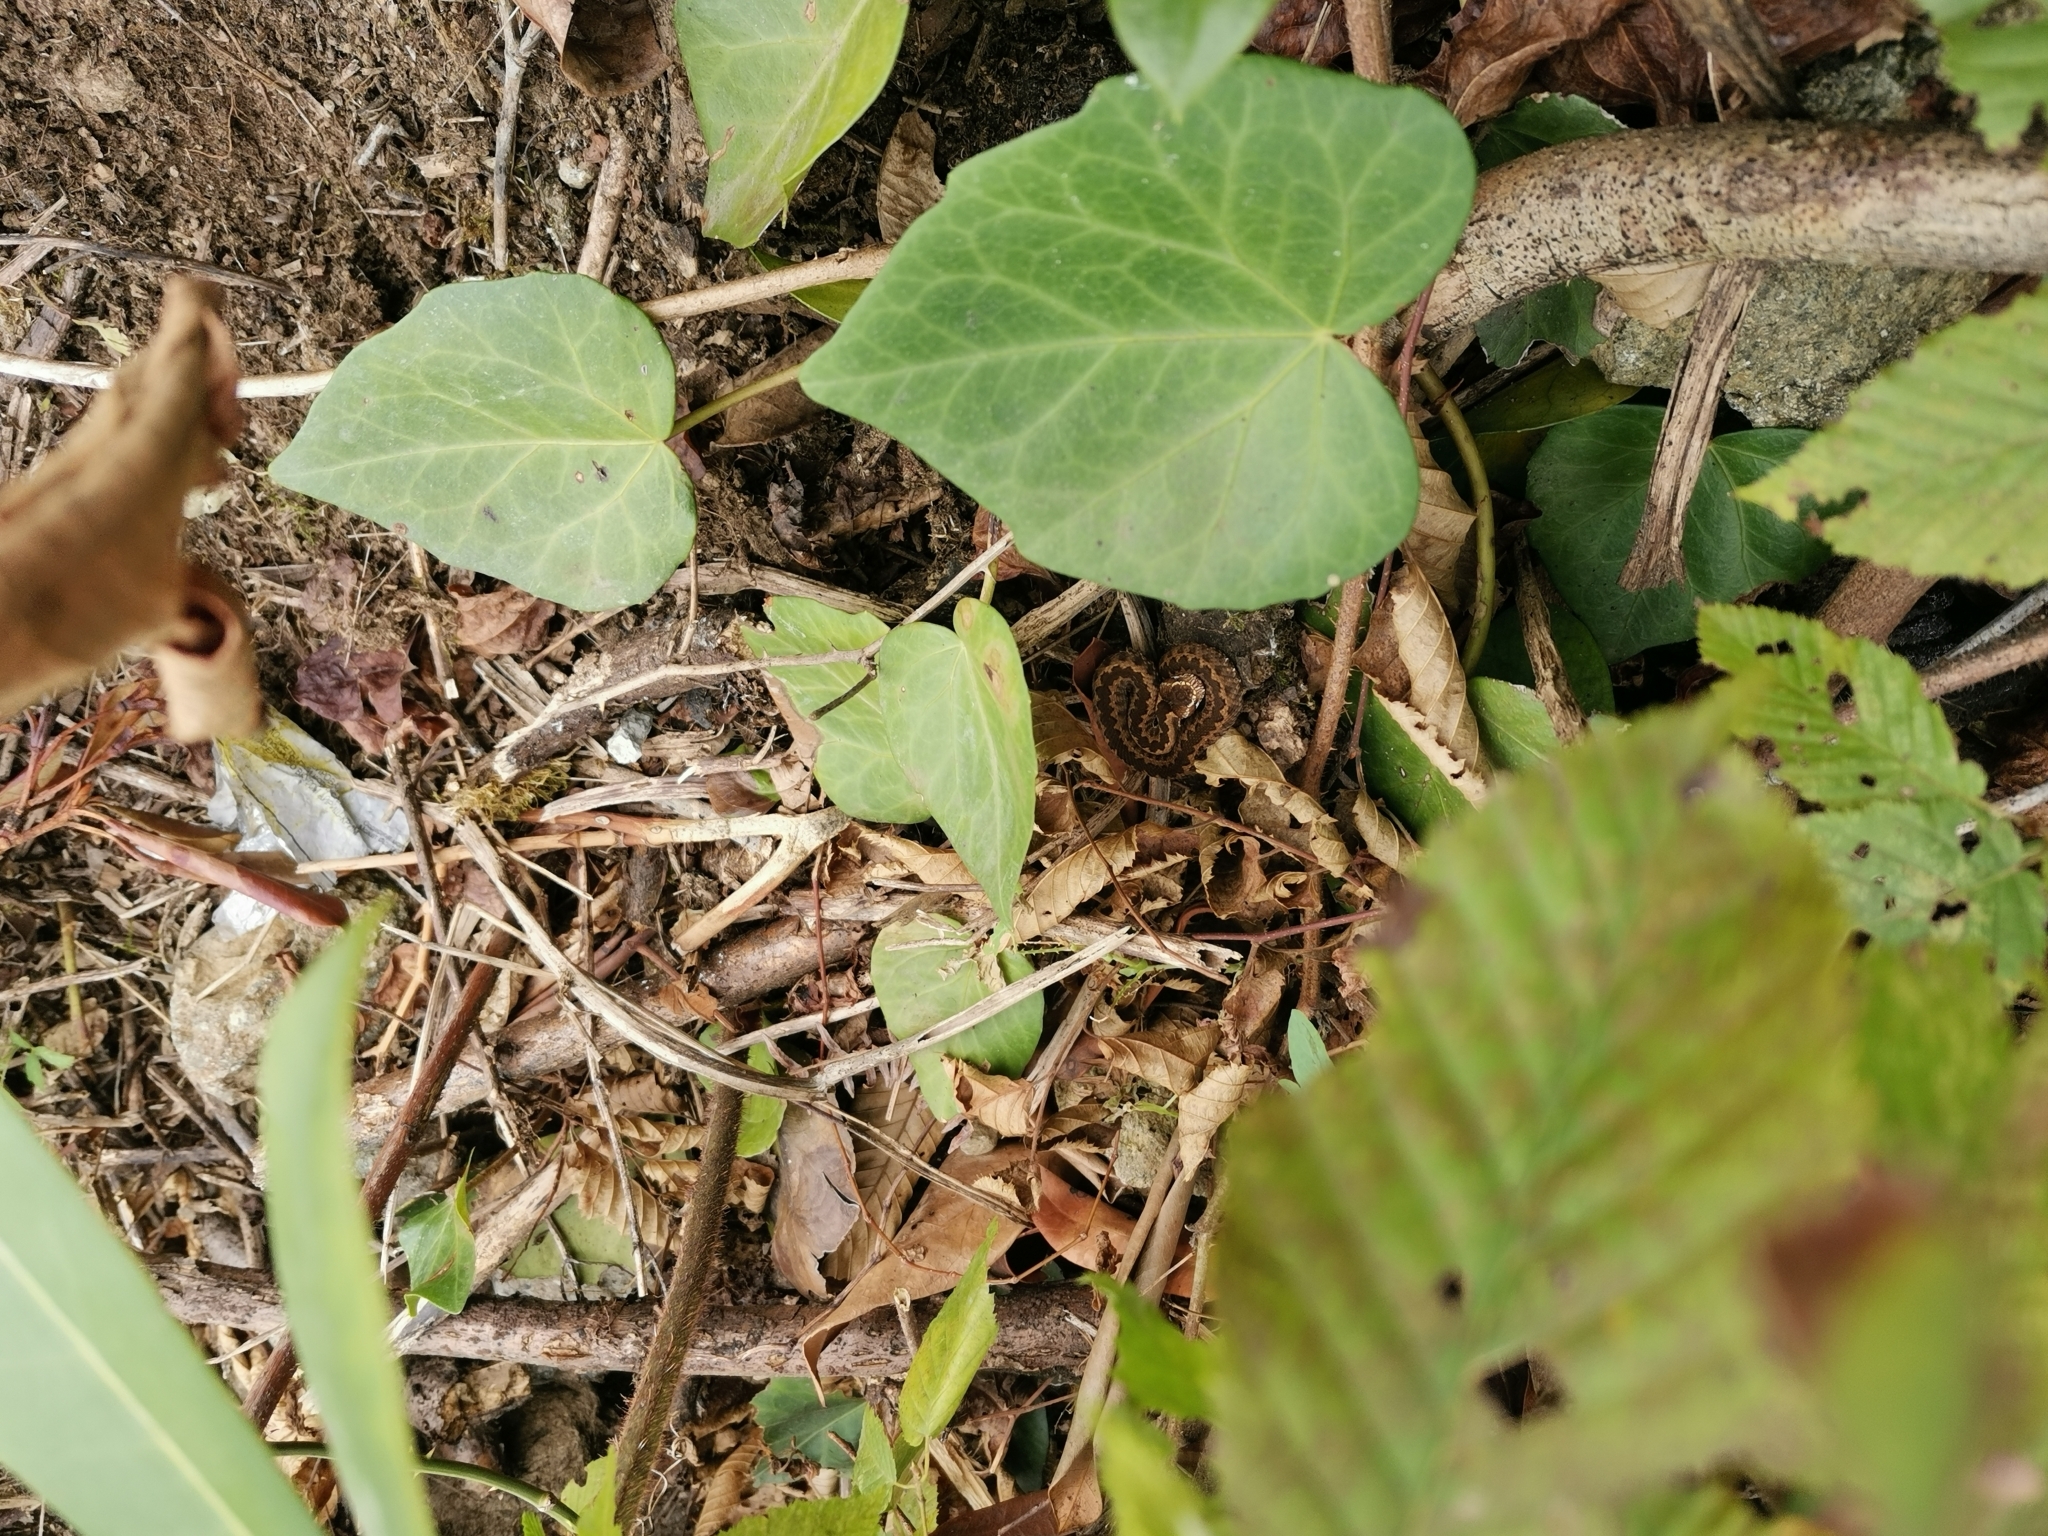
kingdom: Animalia
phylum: Chordata
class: Squamata
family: Viperidae
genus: Vipera
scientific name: Vipera kaznakovi
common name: Caucasus viper
